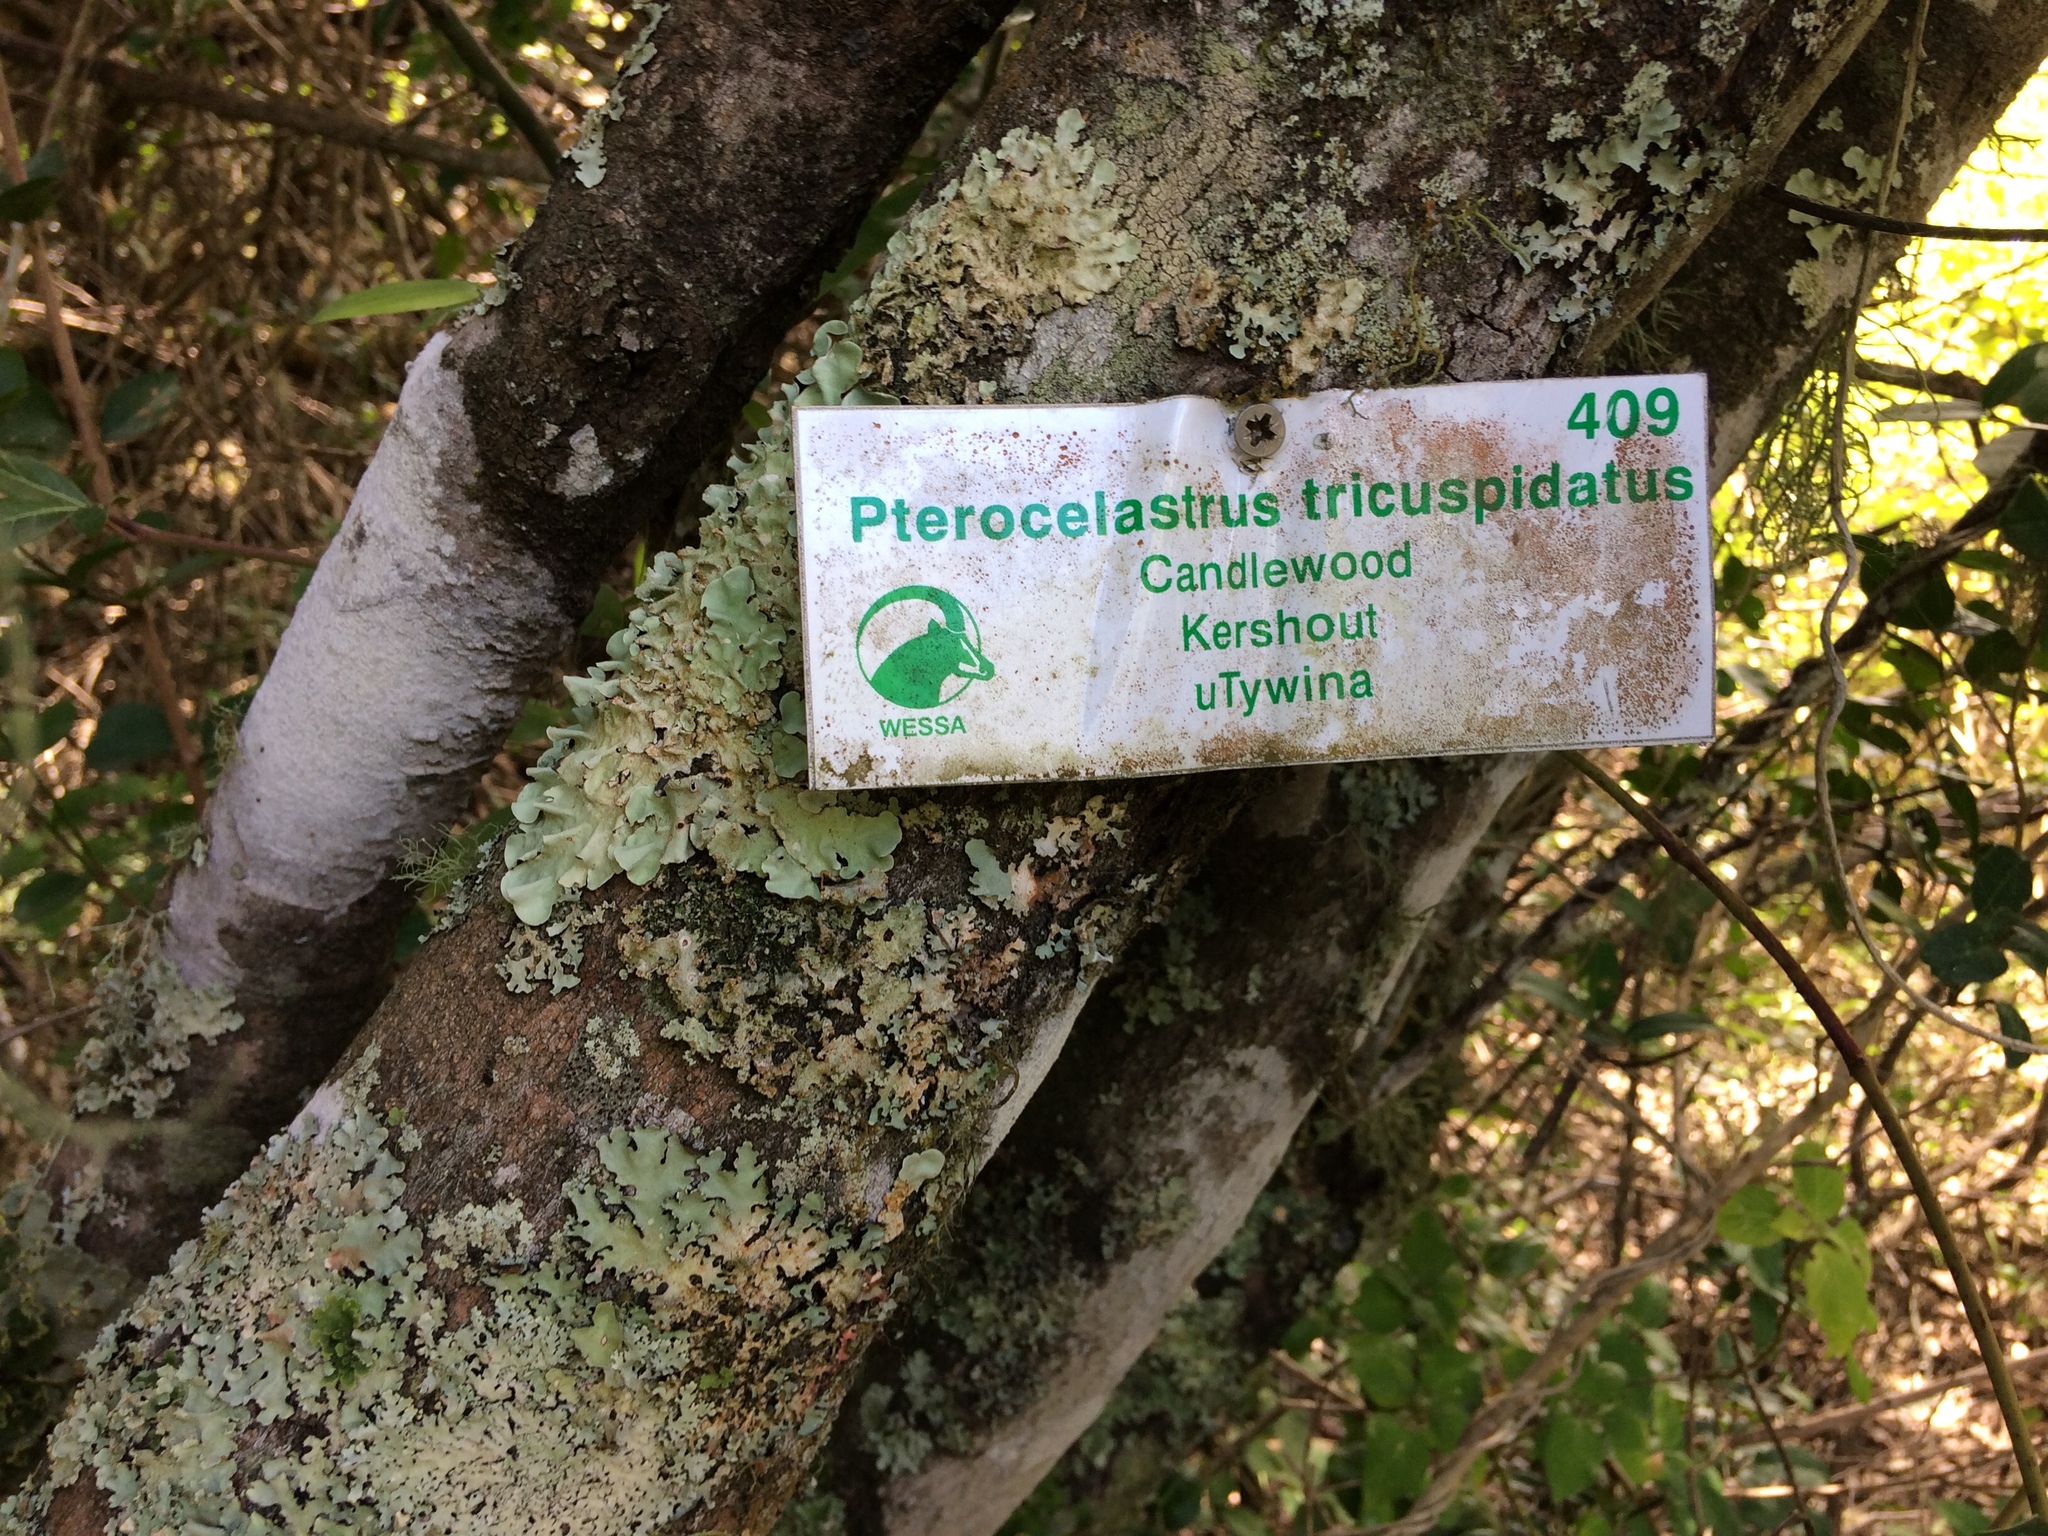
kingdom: Plantae
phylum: Tracheophyta
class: Magnoliopsida
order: Celastrales
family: Celastraceae
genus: Pterocelastrus
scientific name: Pterocelastrus tricuspidatus
